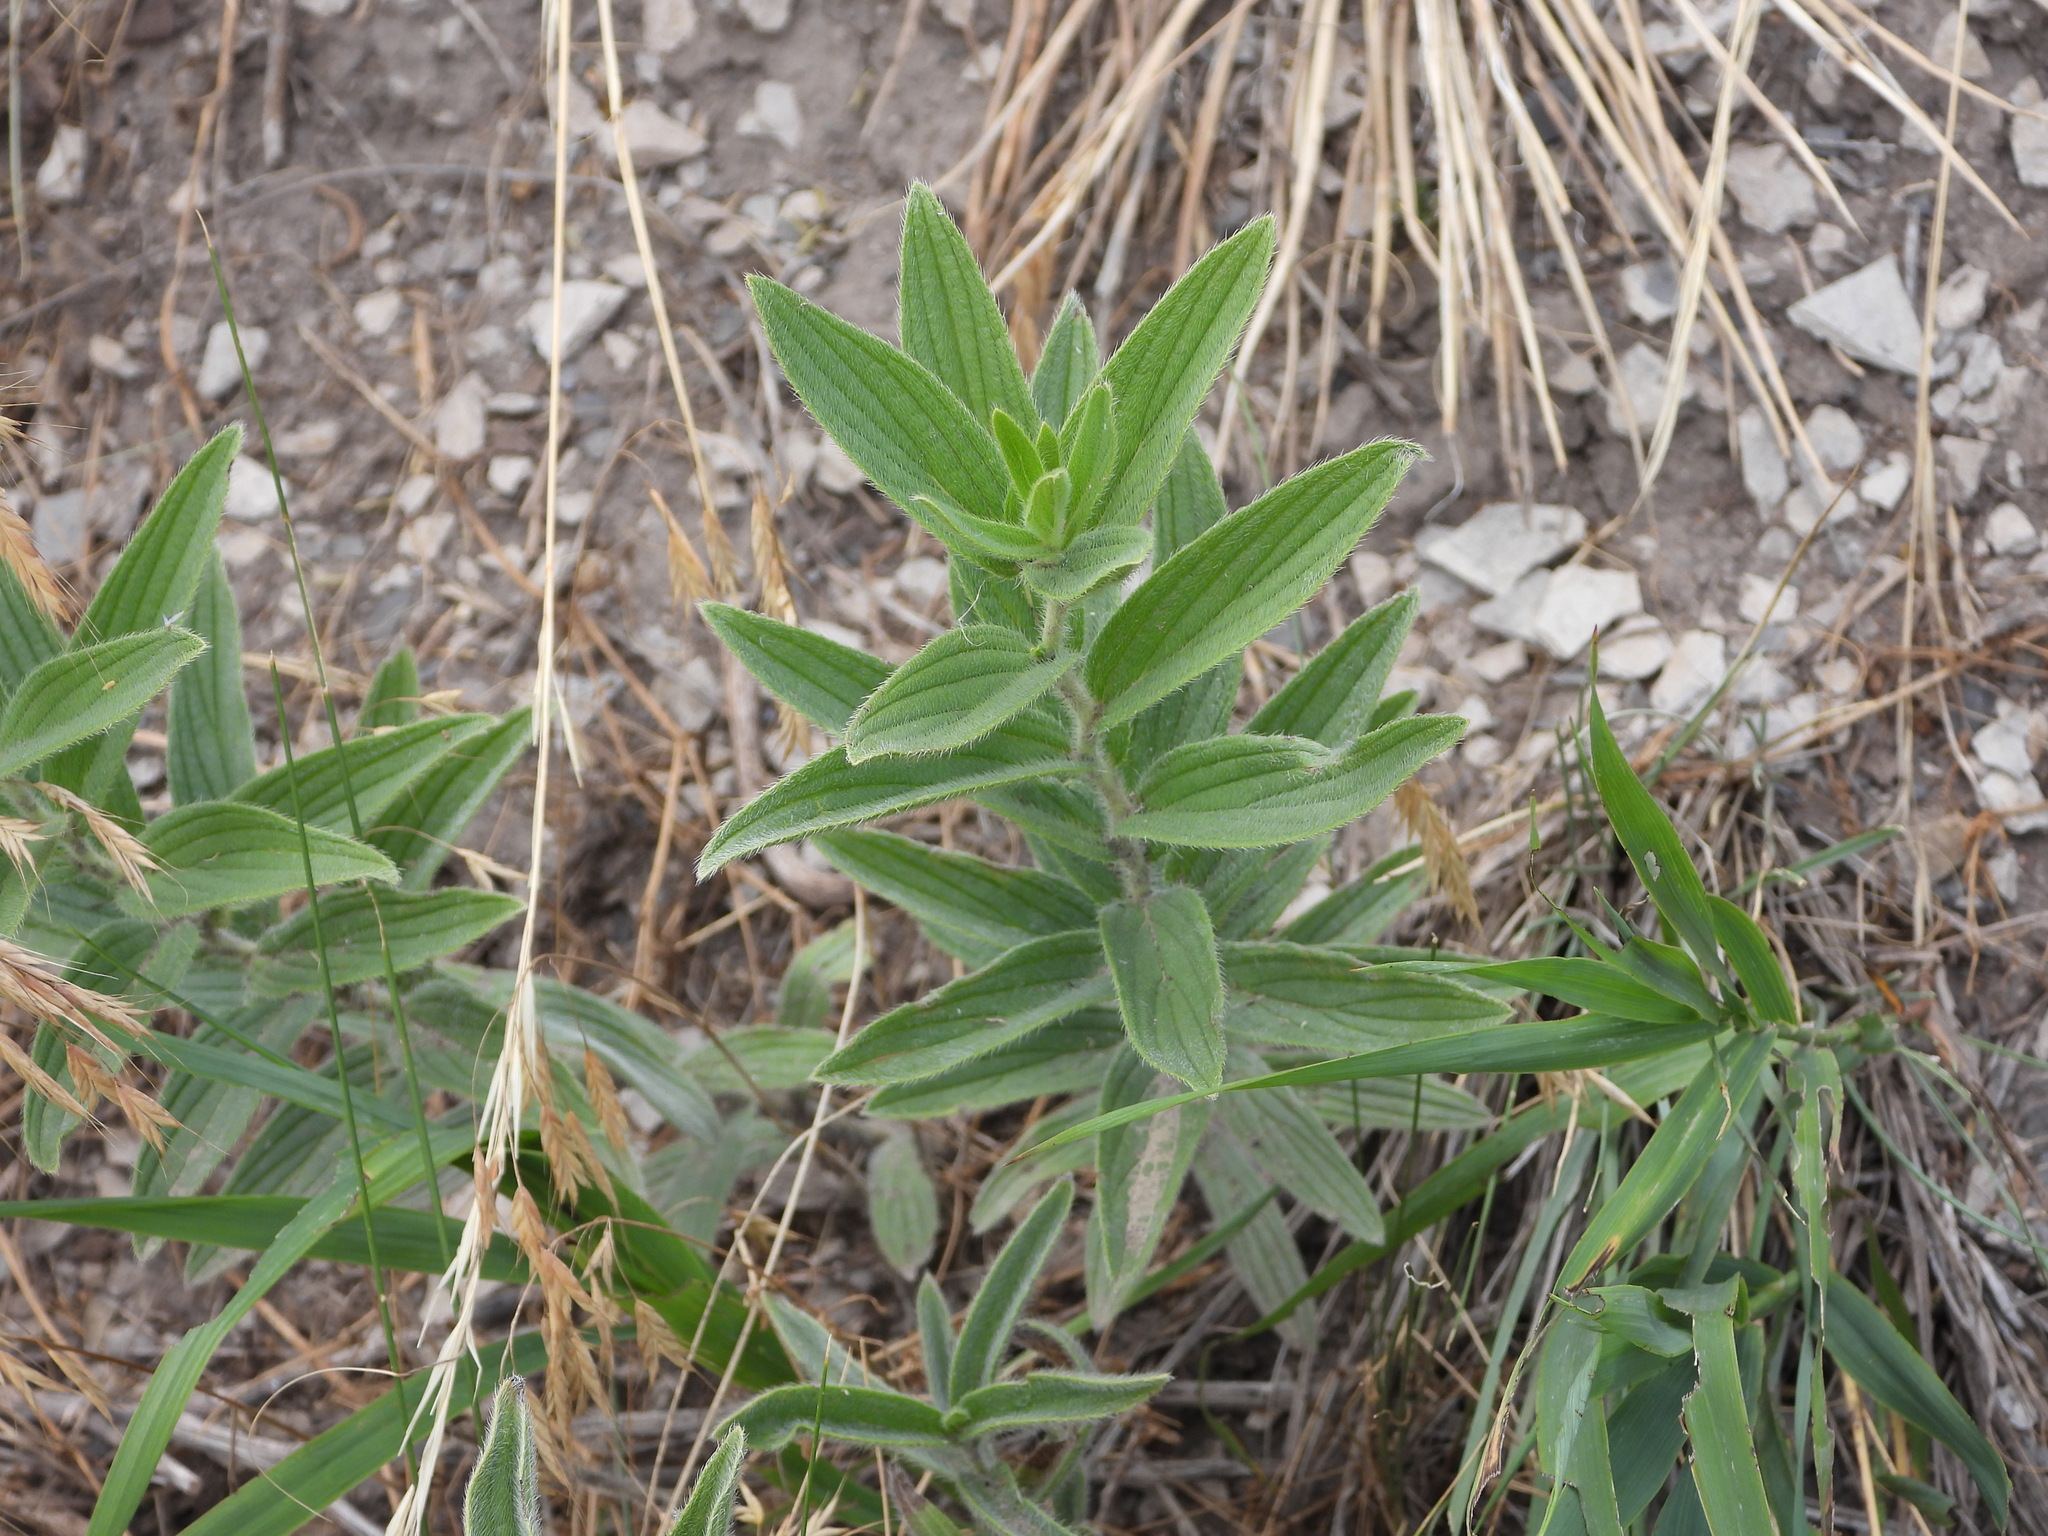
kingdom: Plantae
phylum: Tracheophyta
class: Magnoliopsida
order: Boraginales
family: Boraginaceae
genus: Lithospermum
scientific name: Lithospermum occidentale
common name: Western false gromwell
